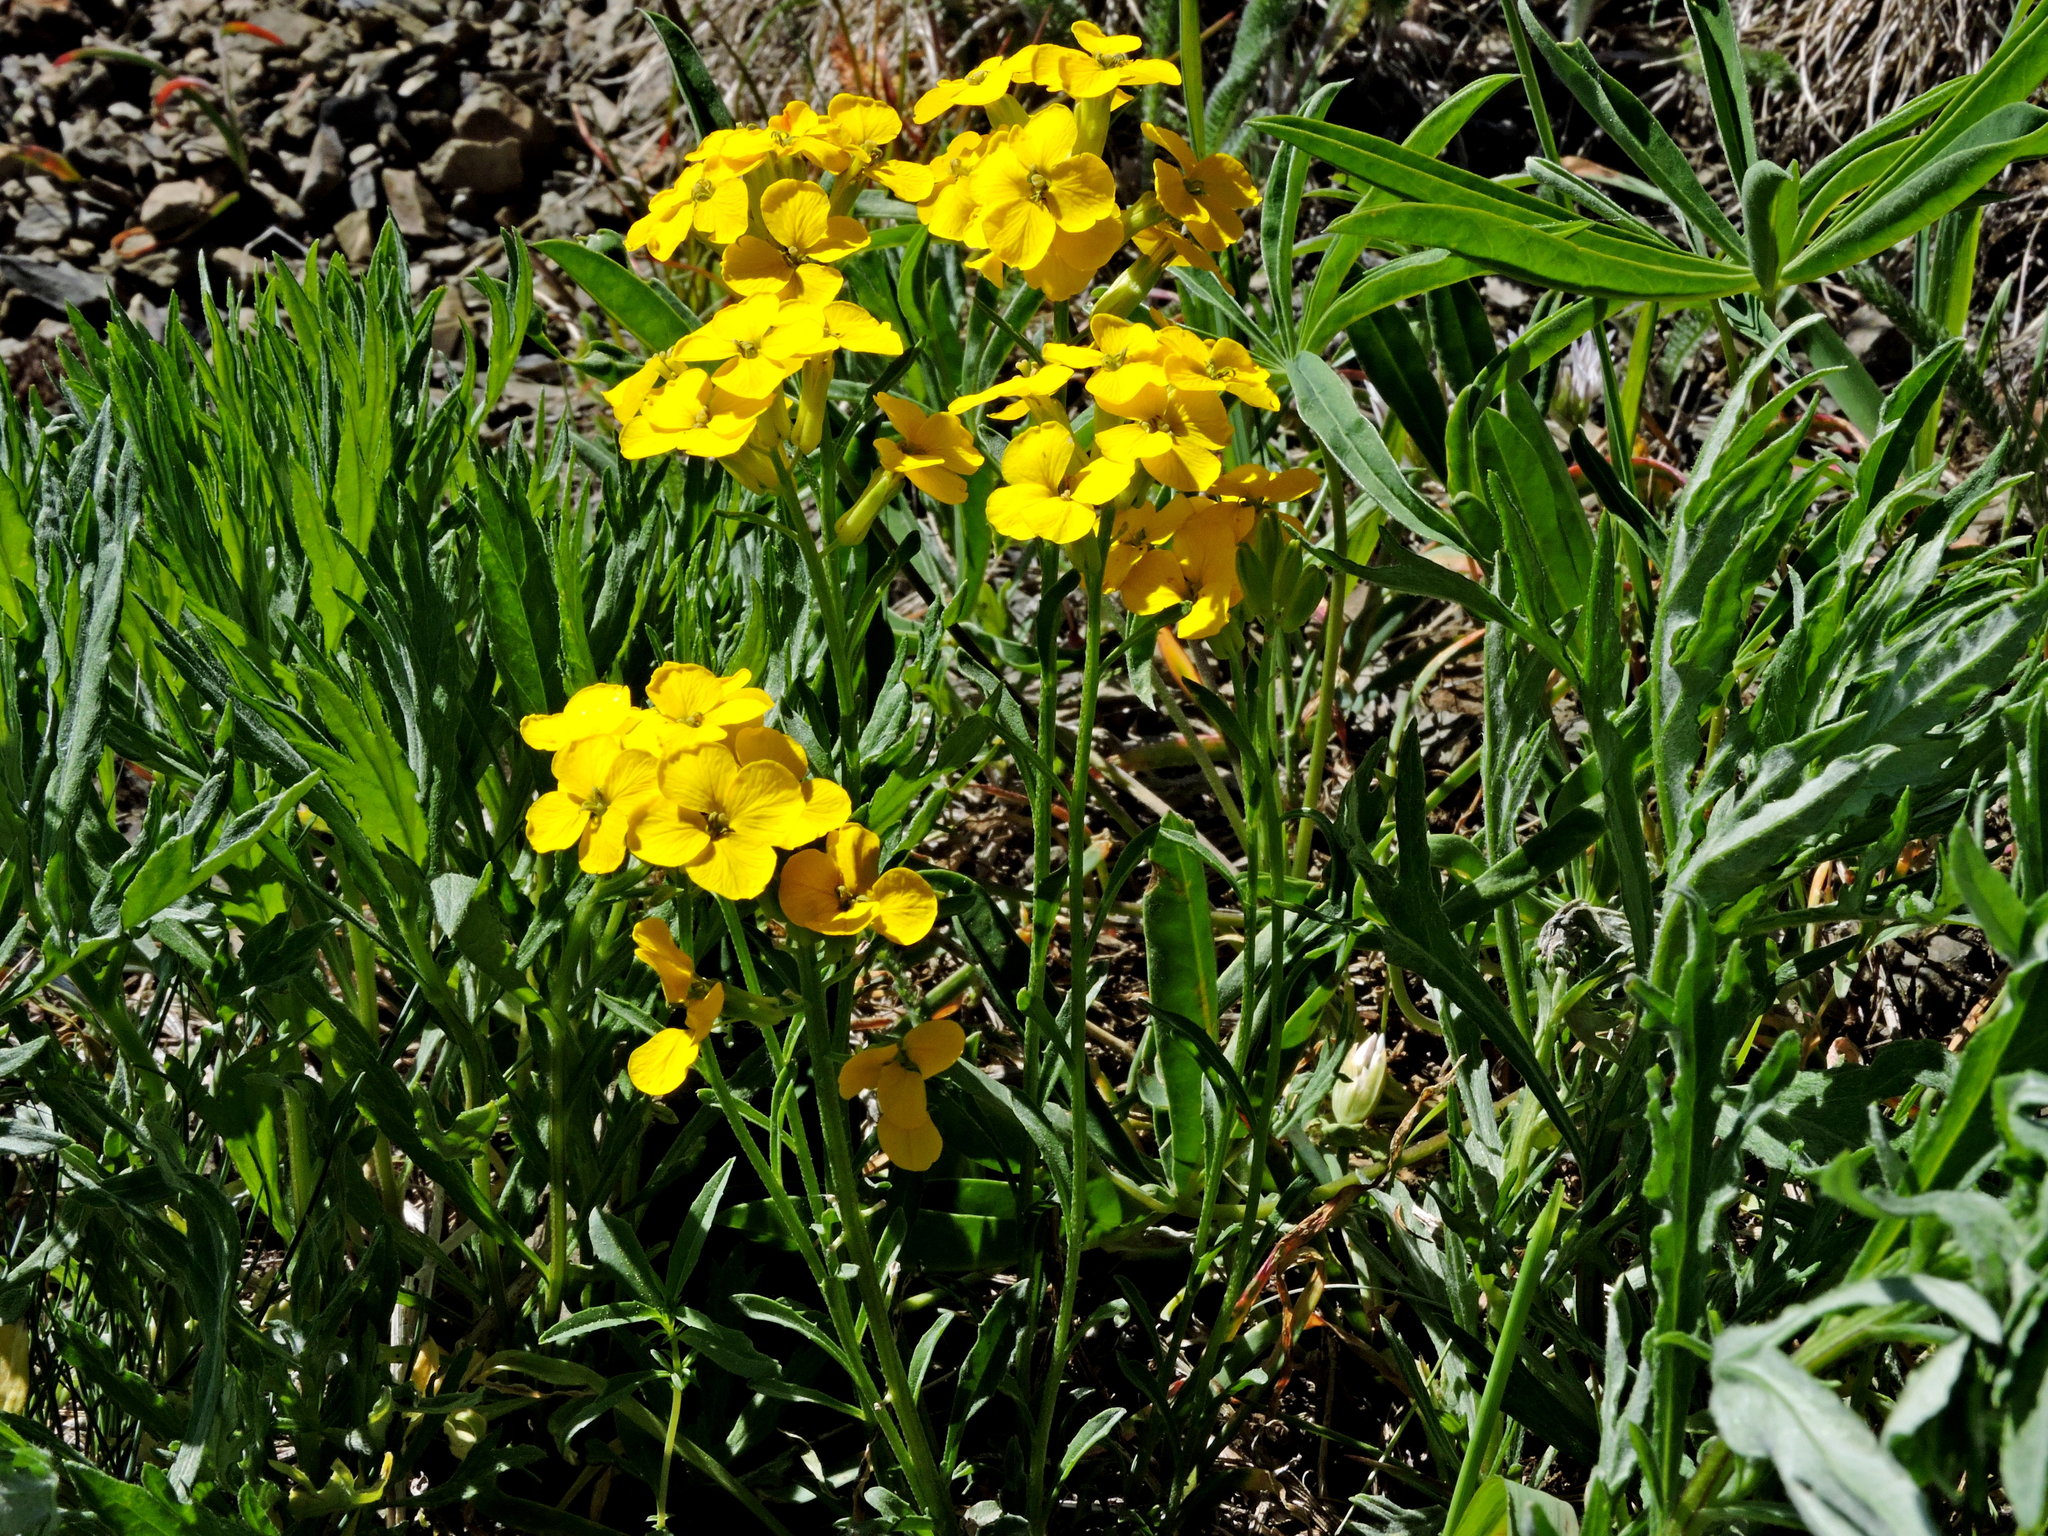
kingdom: Plantae
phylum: Tracheophyta
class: Magnoliopsida
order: Brassicales
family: Brassicaceae
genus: Erysimum
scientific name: Erysimum capitatum
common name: Western wallflower
